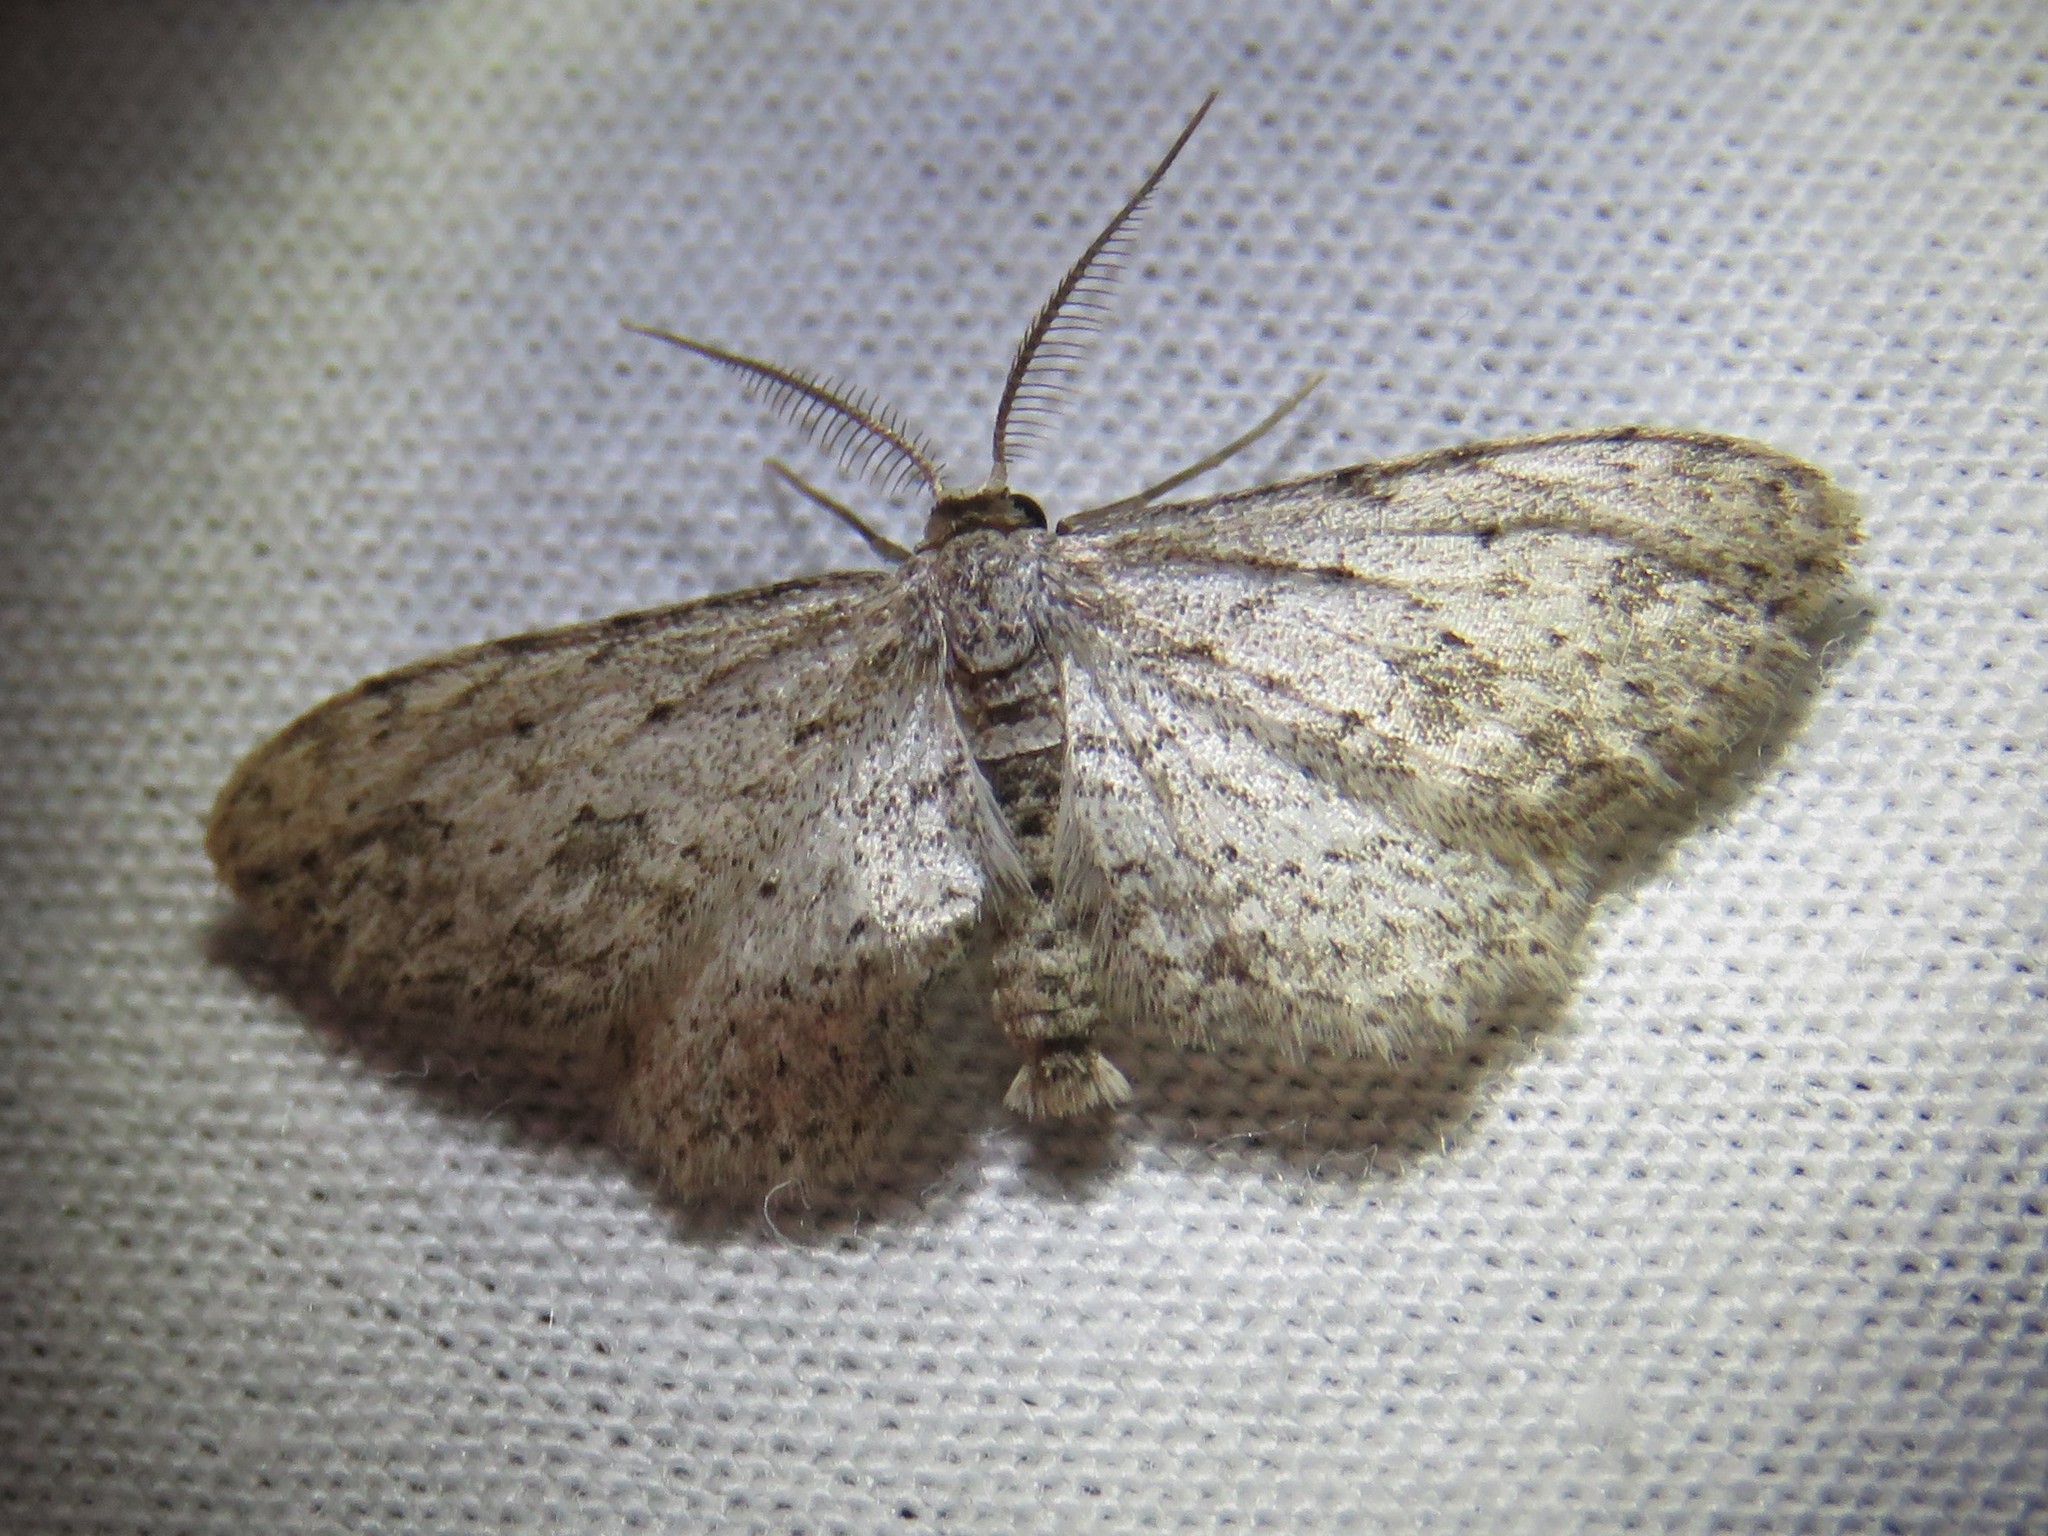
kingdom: Animalia
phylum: Arthropoda
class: Insecta
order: Lepidoptera
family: Geometridae
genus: Pimaphera
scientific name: Pimaphera sparsaria
